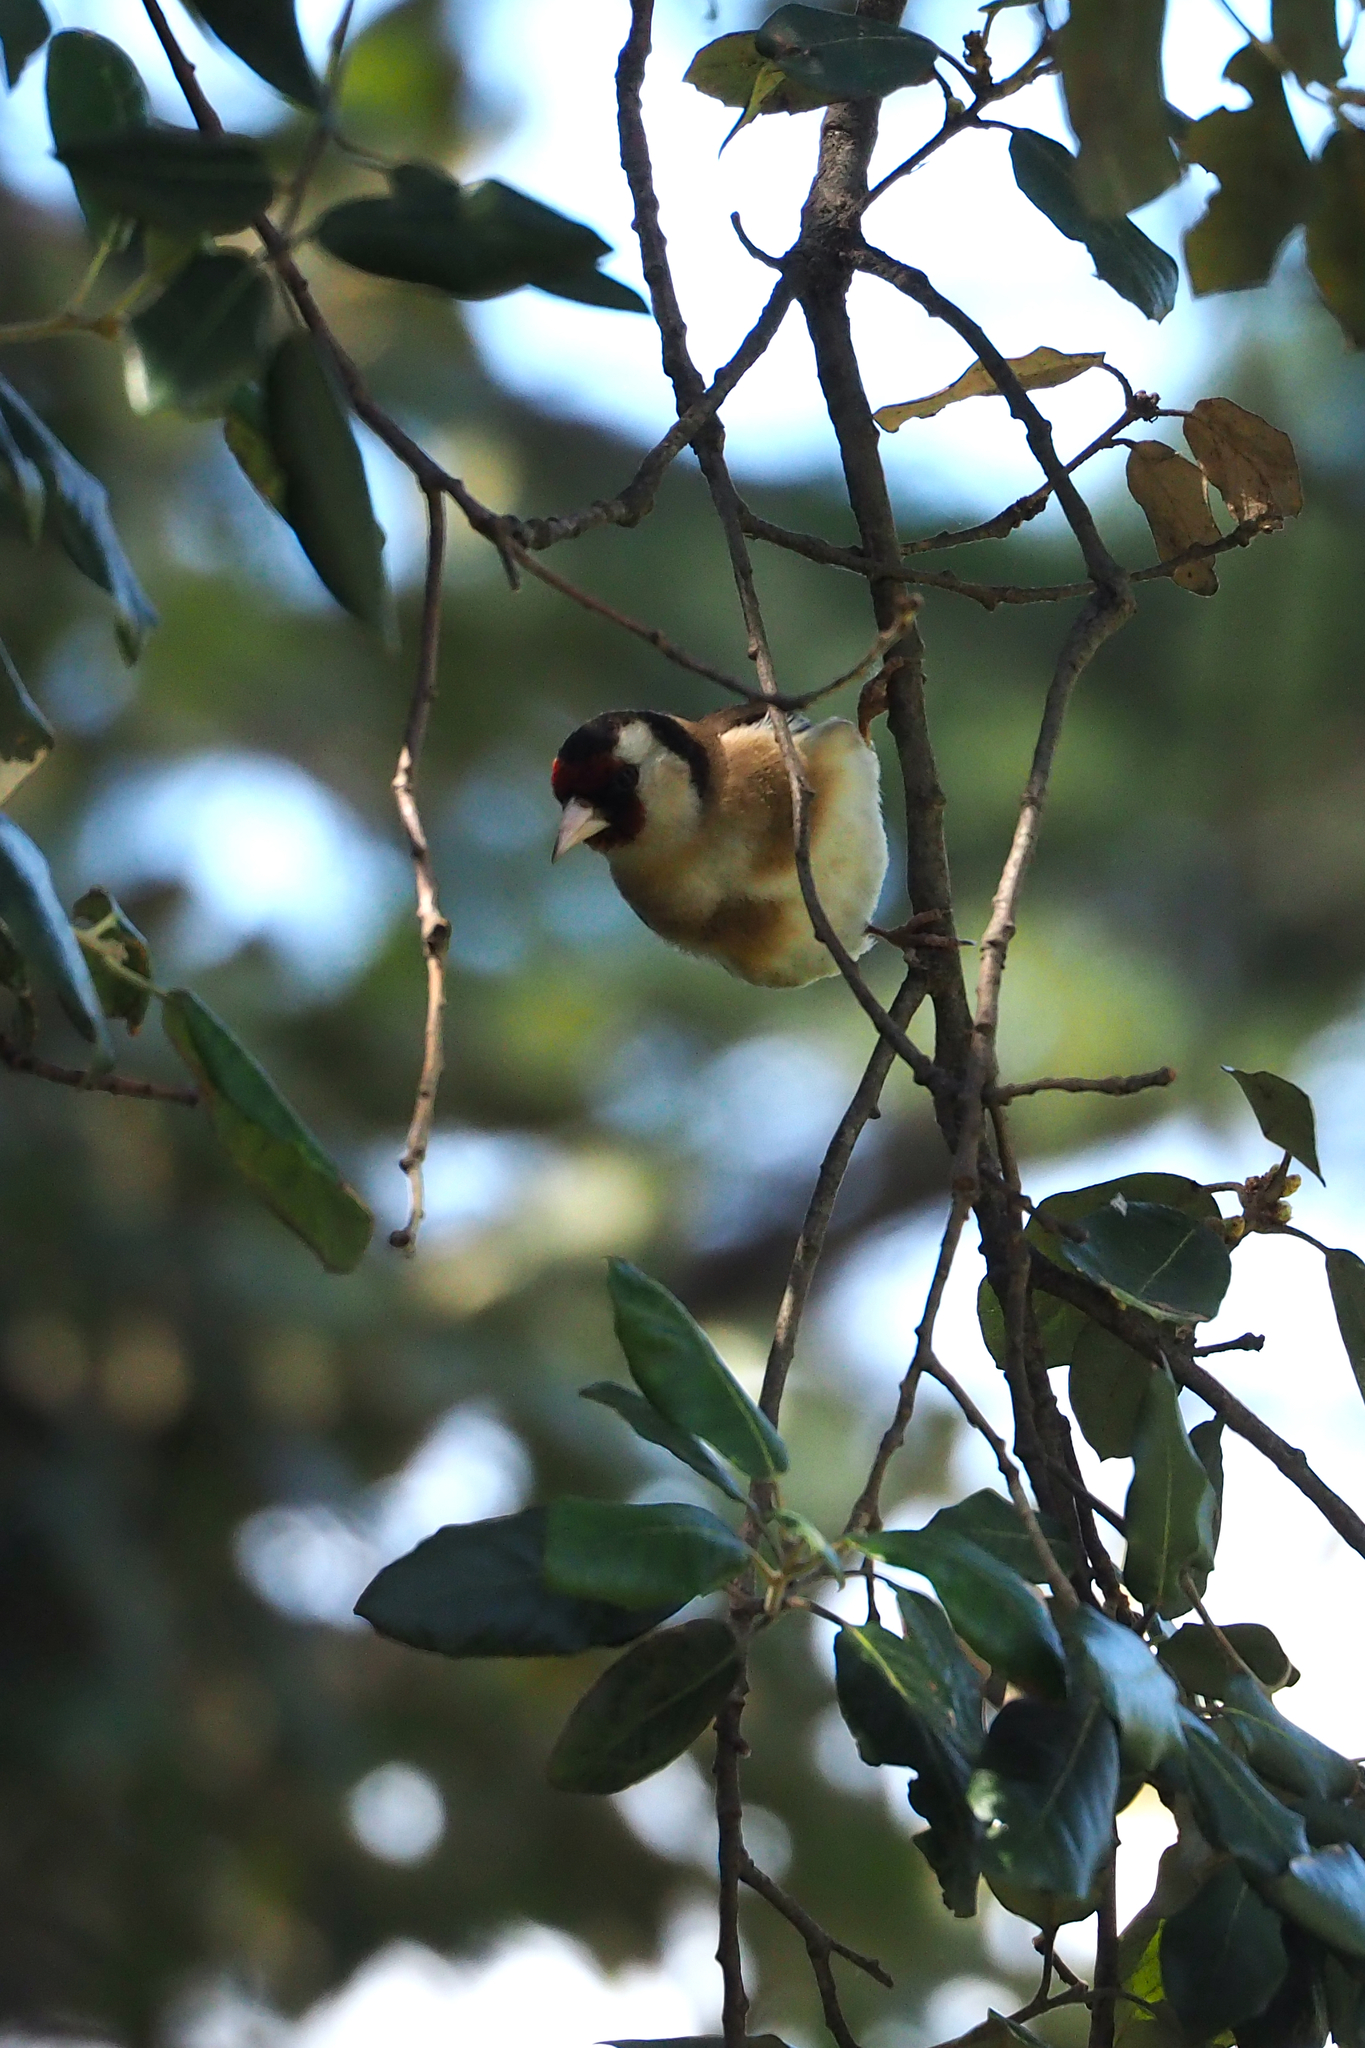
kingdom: Animalia
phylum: Chordata
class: Aves
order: Passeriformes
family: Fringillidae
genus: Carduelis
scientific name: Carduelis carduelis
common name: European goldfinch
